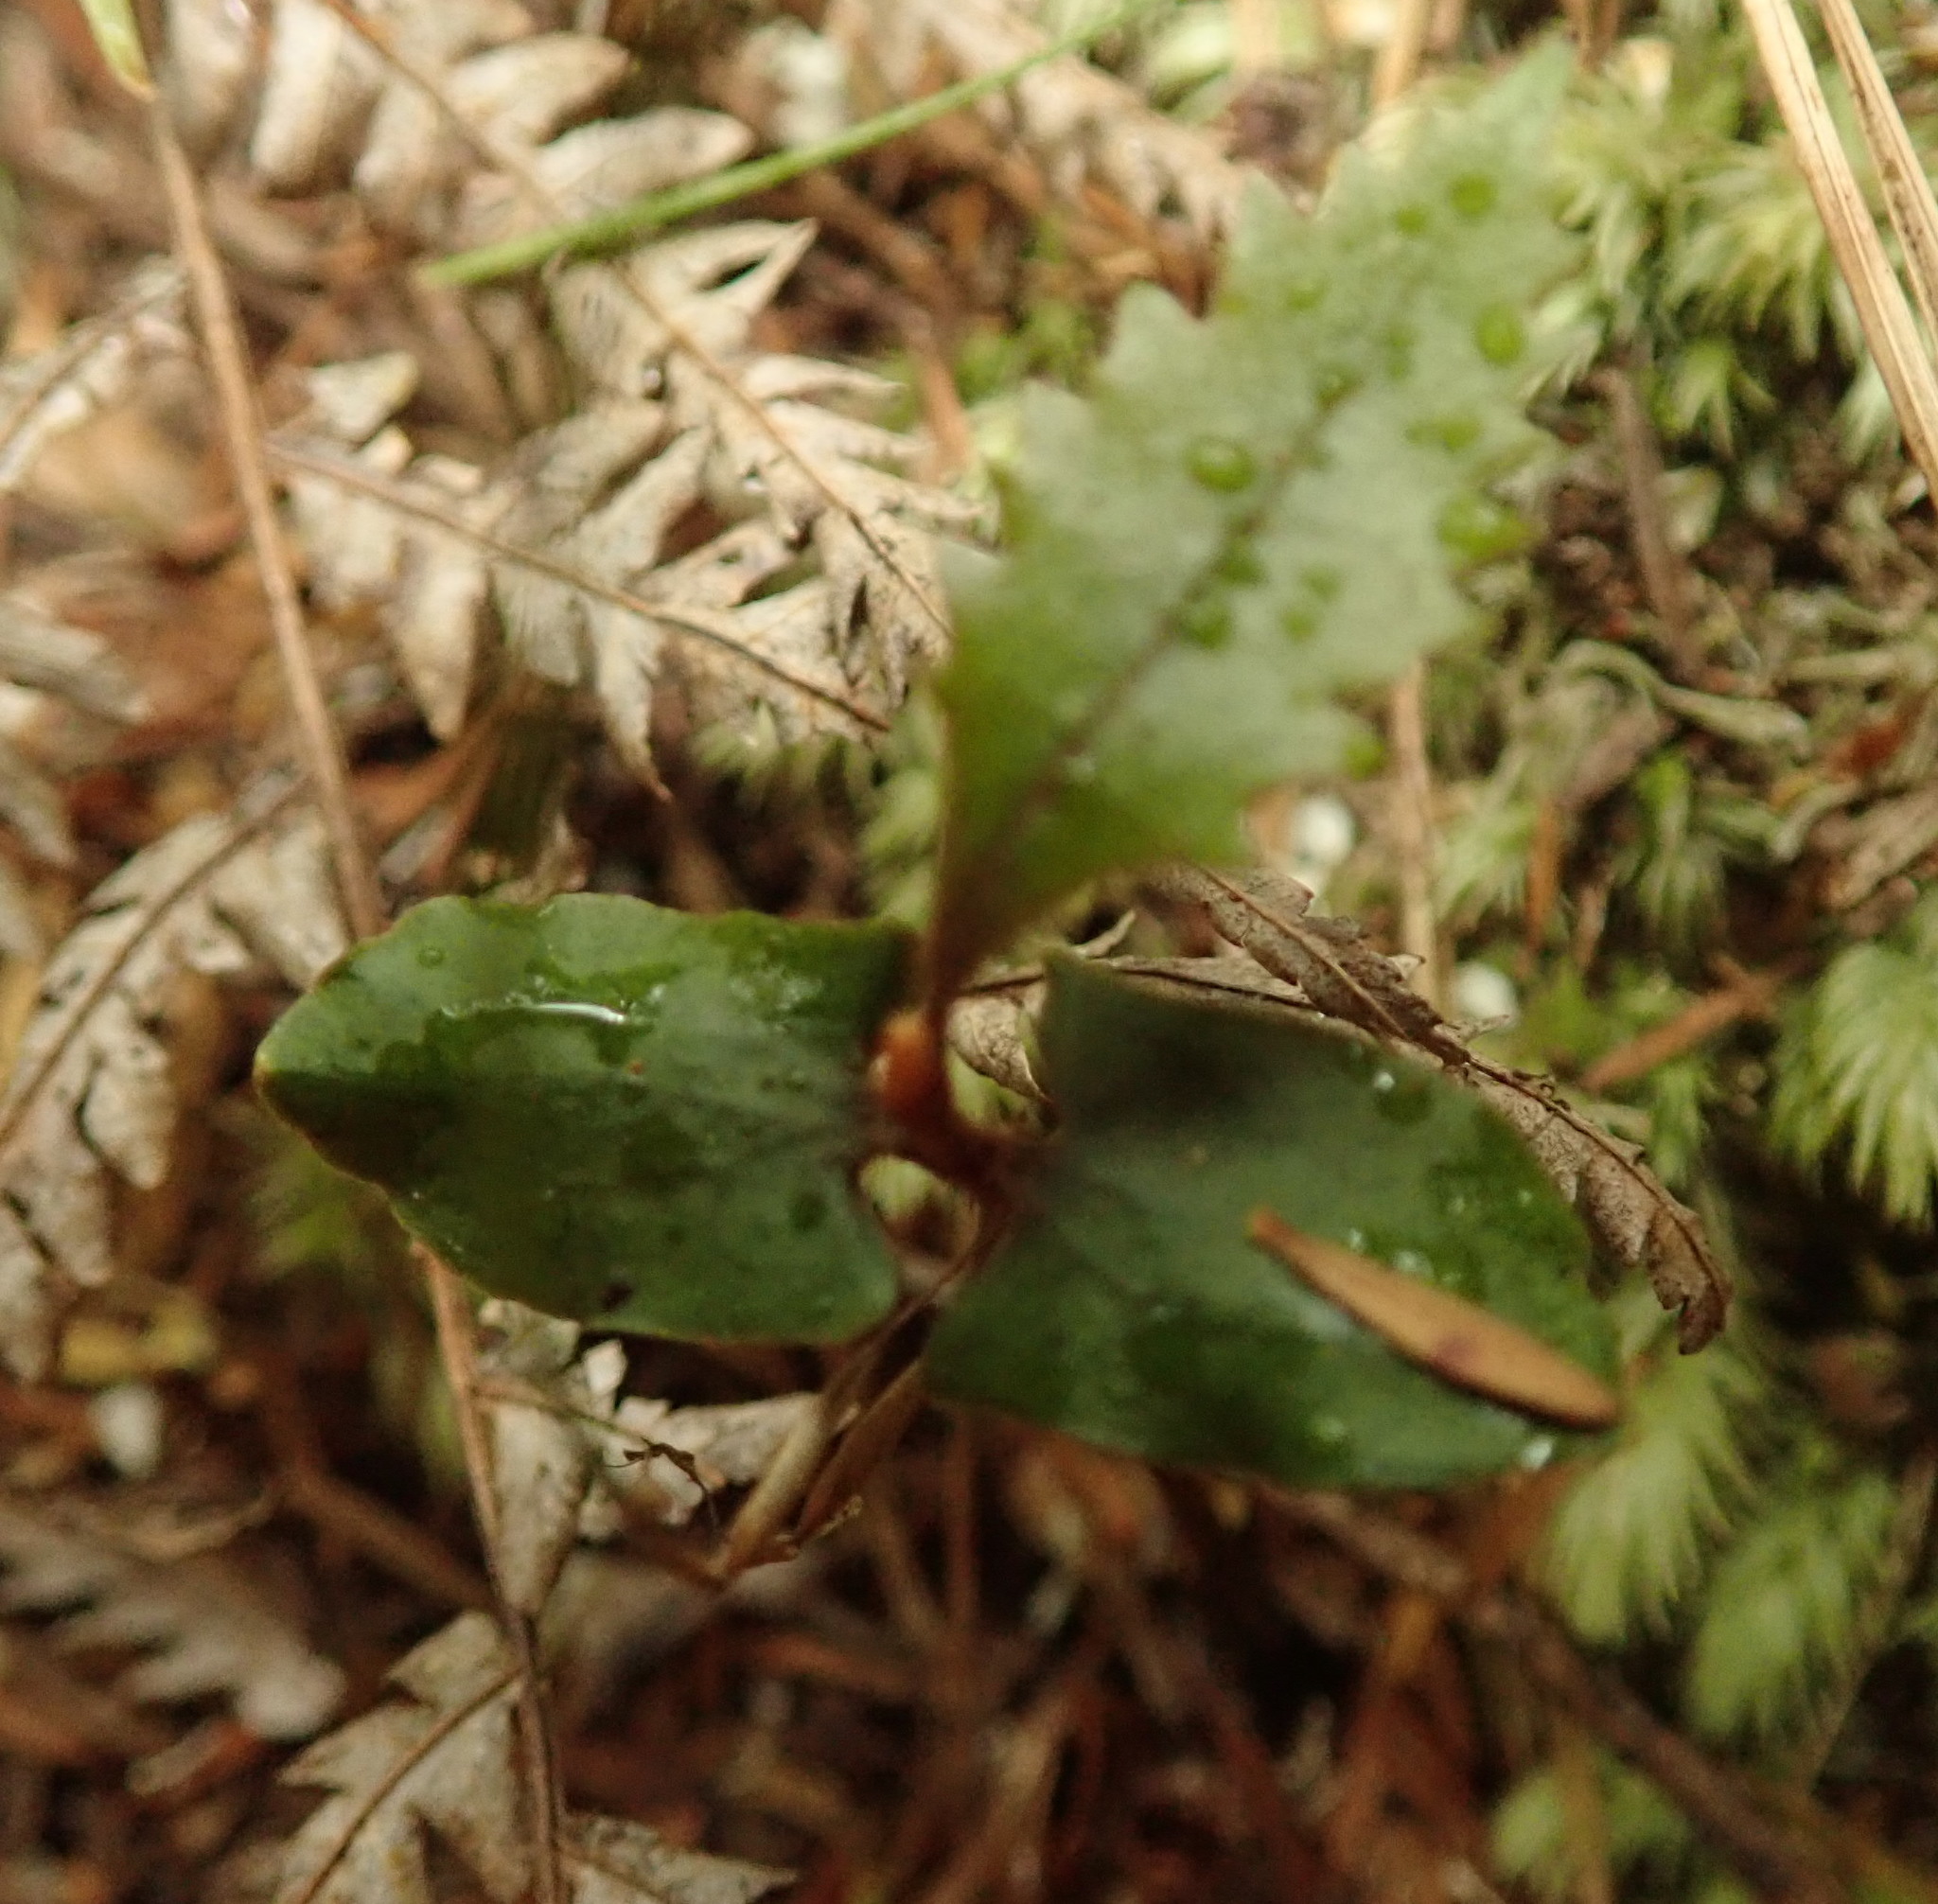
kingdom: Plantae
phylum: Tracheophyta
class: Magnoliopsida
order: Proteales
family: Proteaceae
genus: Knightia
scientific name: Knightia excelsa
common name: New zealand-honeysuckle
